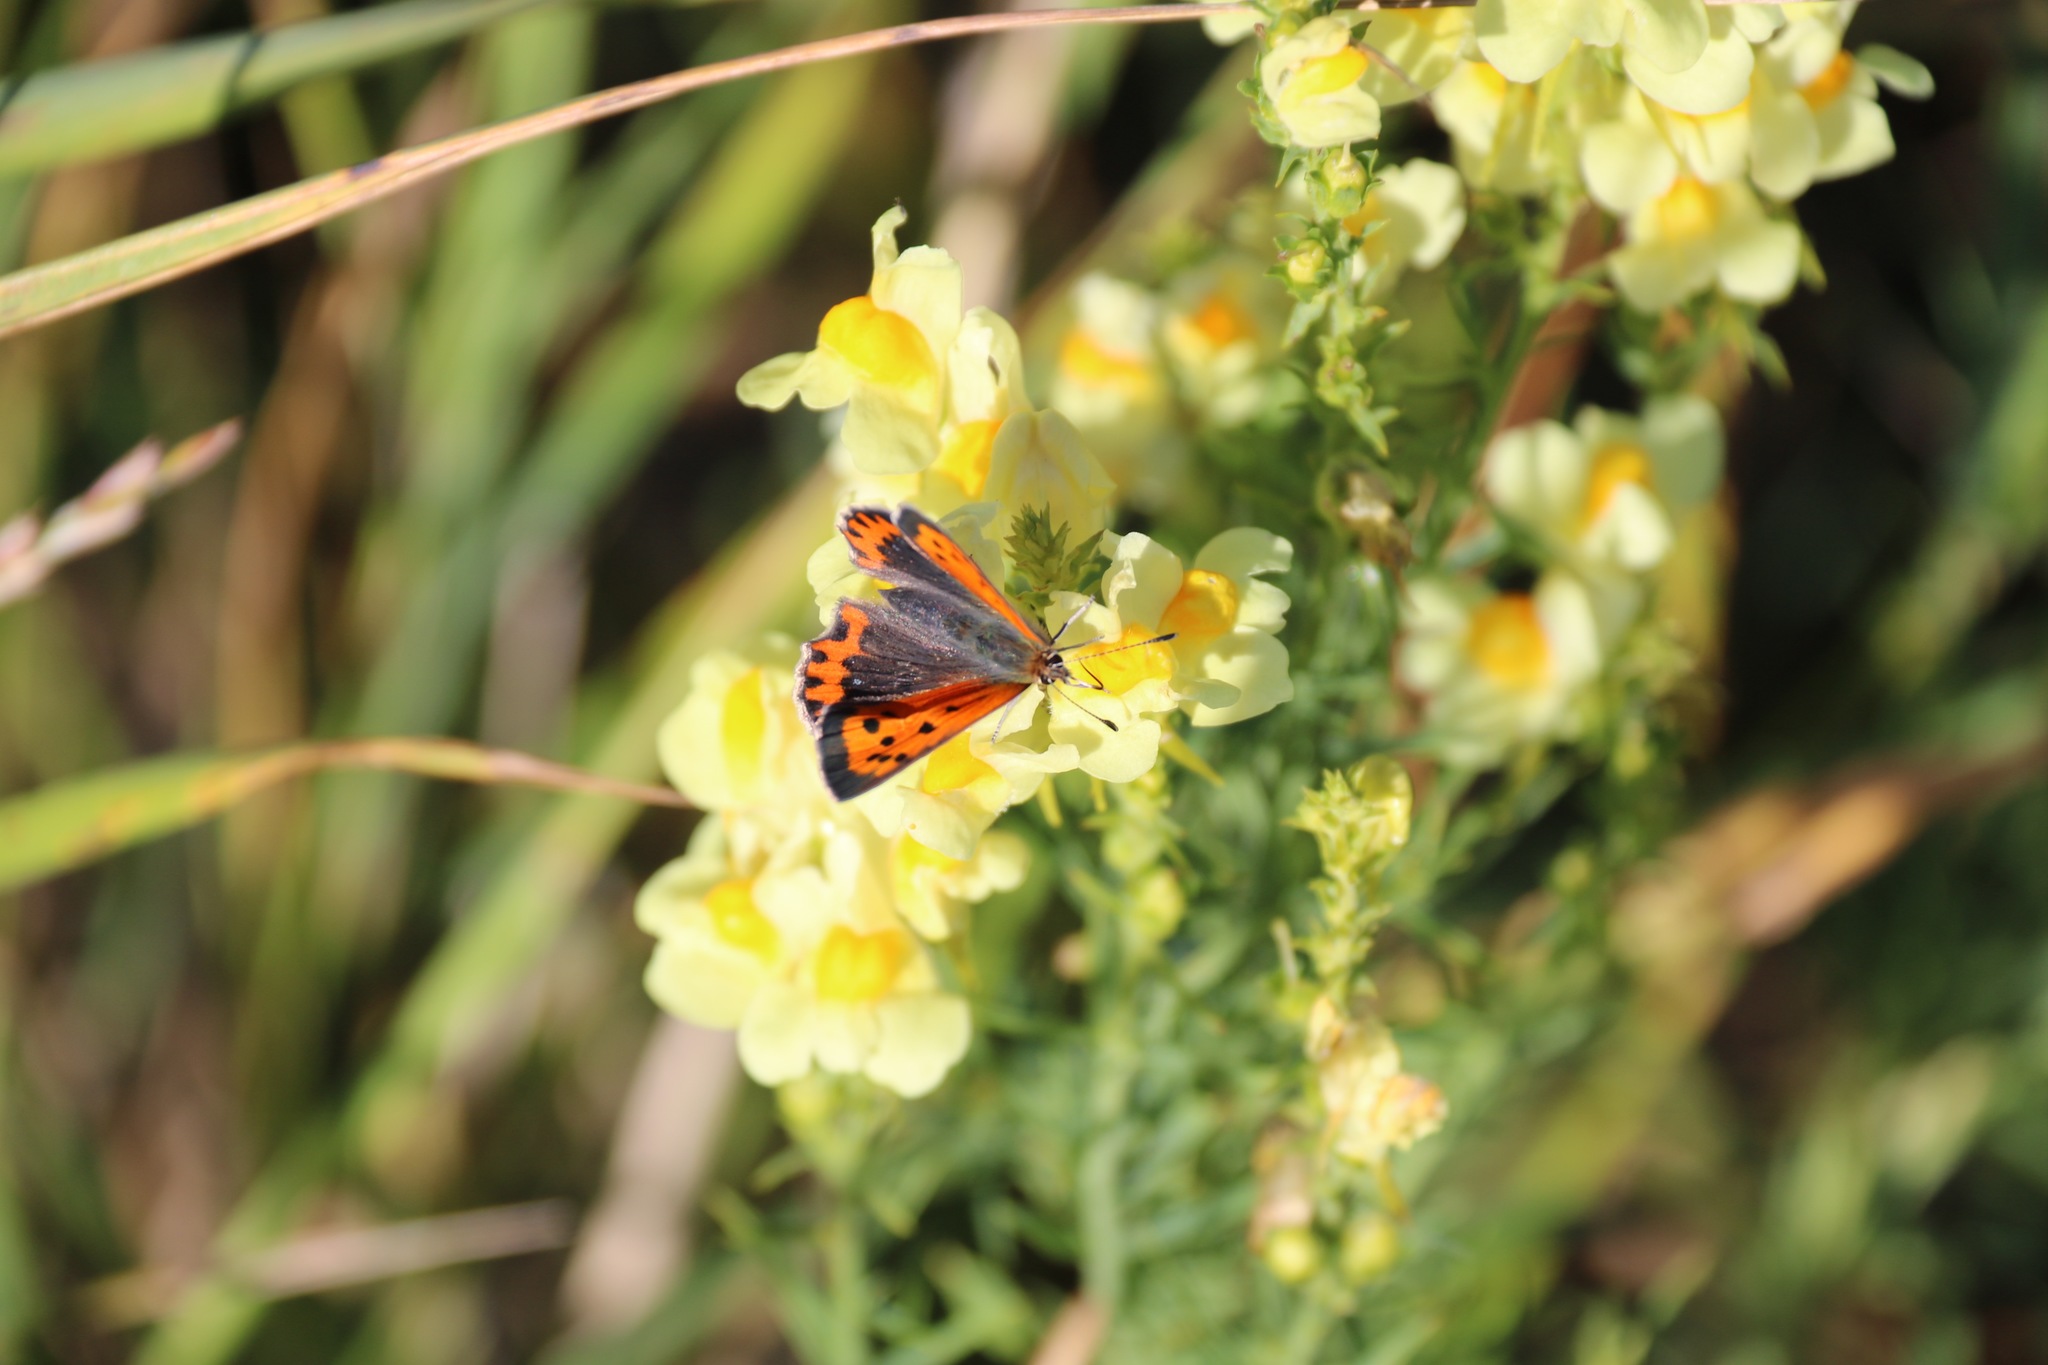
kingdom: Animalia
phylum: Arthropoda
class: Insecta
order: Lepidoptera
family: Lycaenidae
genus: Lycaena
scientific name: Lycaena phlaeas
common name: Small copper
